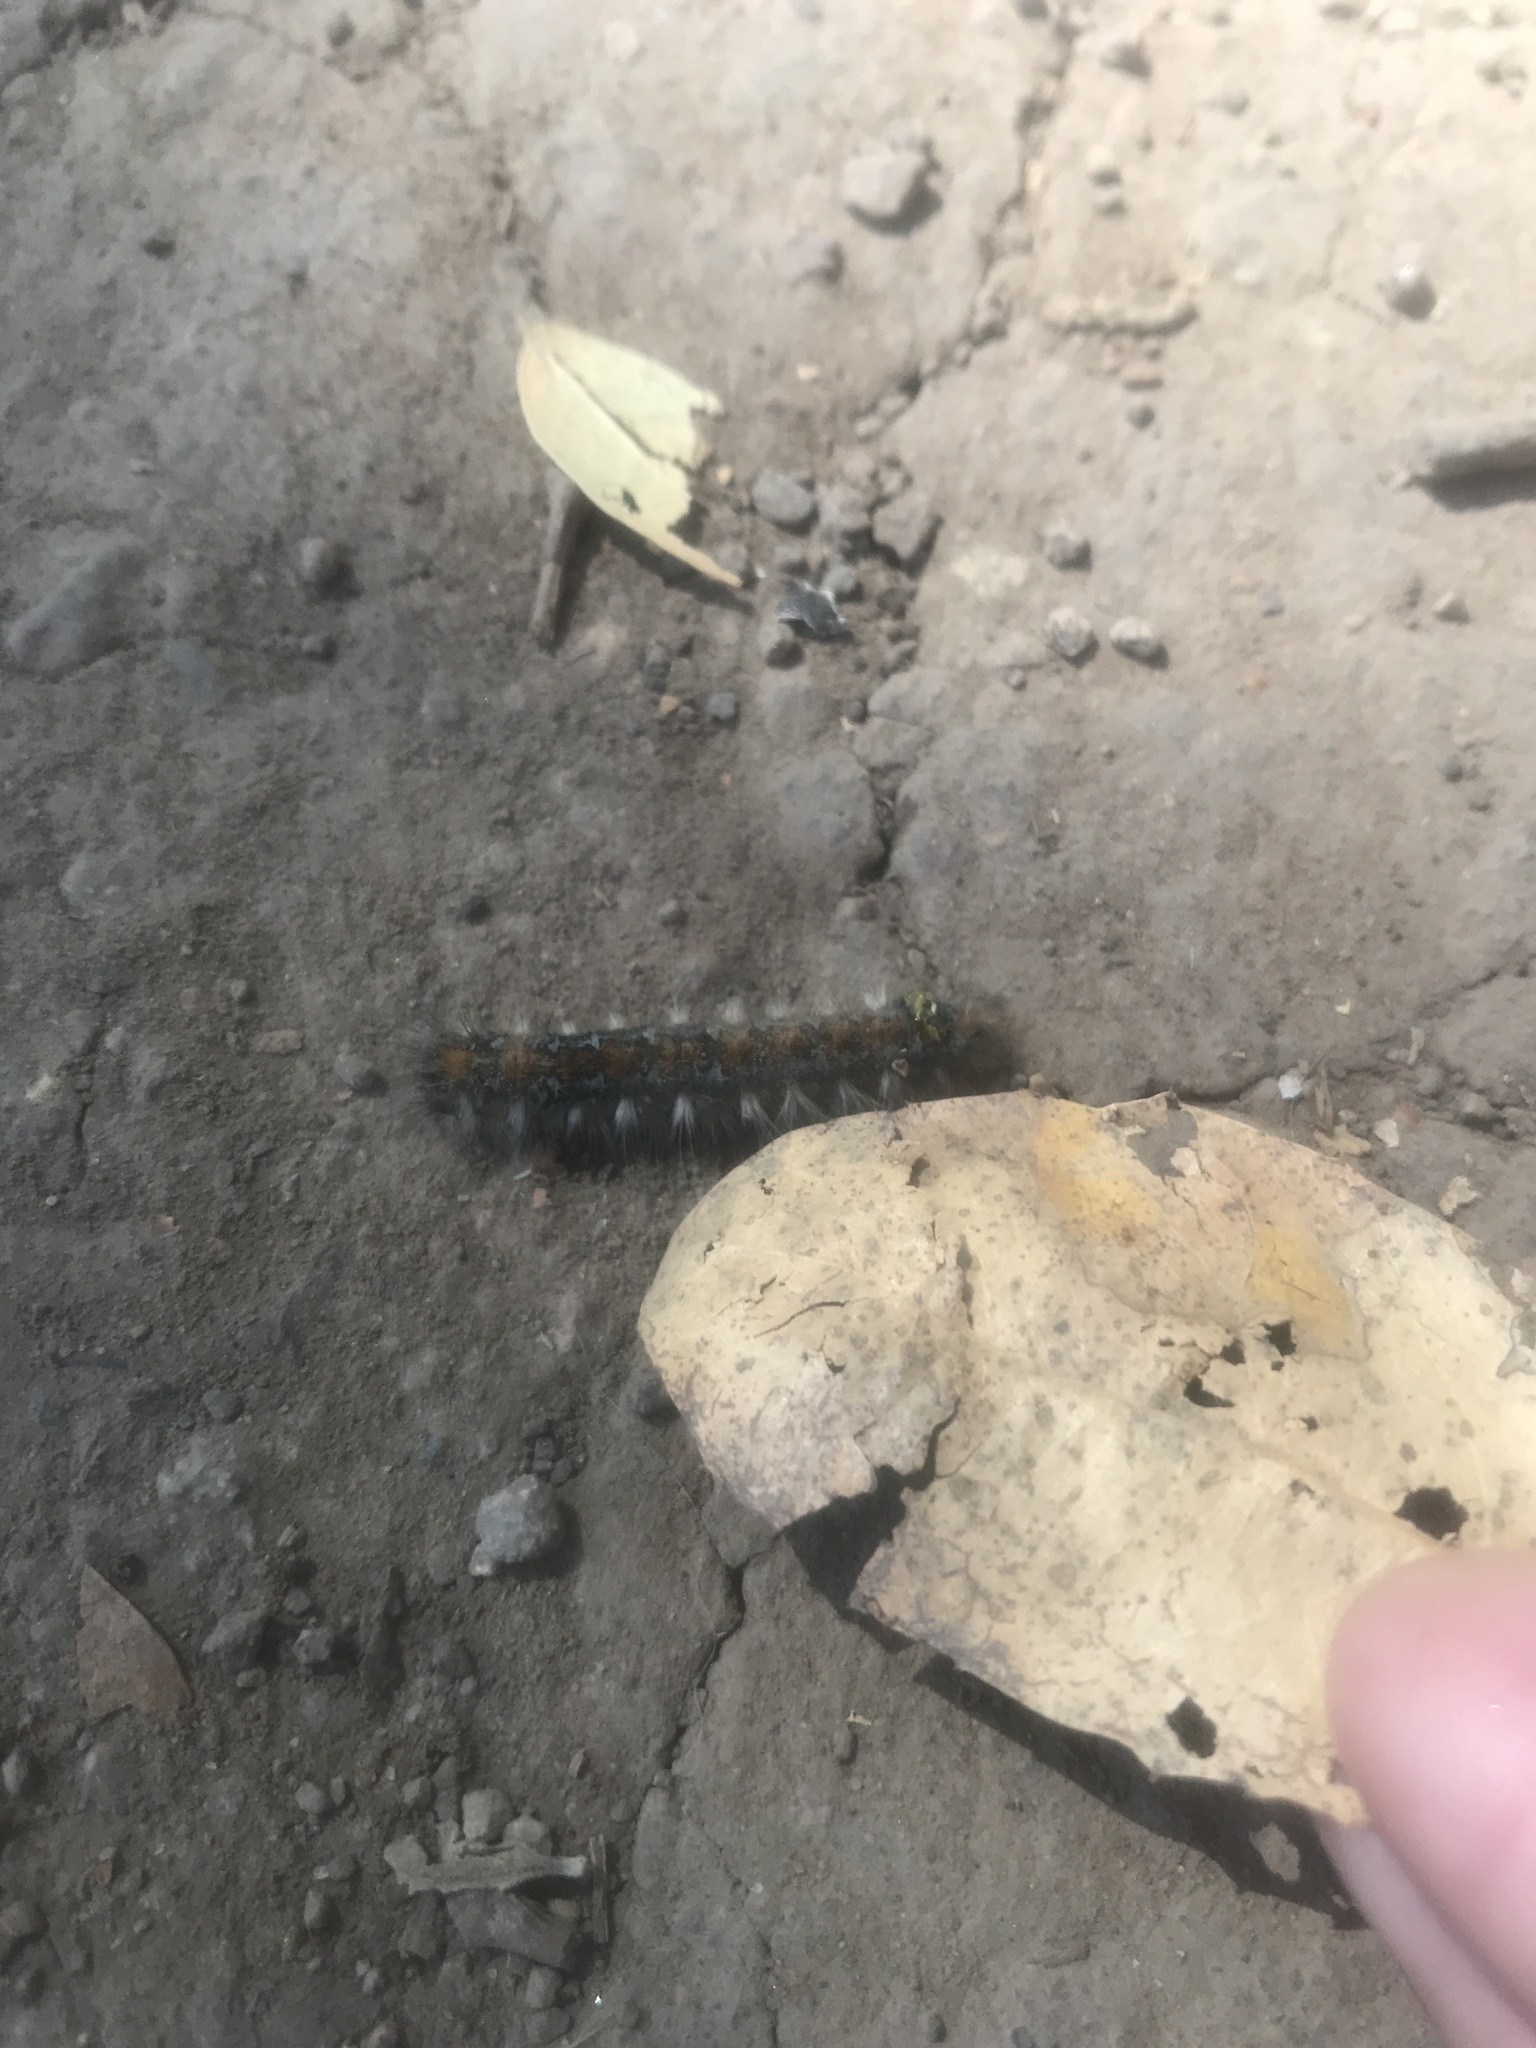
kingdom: Animalia
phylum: Arthropoda
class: Insecta
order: Lepidoptera
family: Lasiocampidae
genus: Malacosoma
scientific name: Malacosoma constricta
